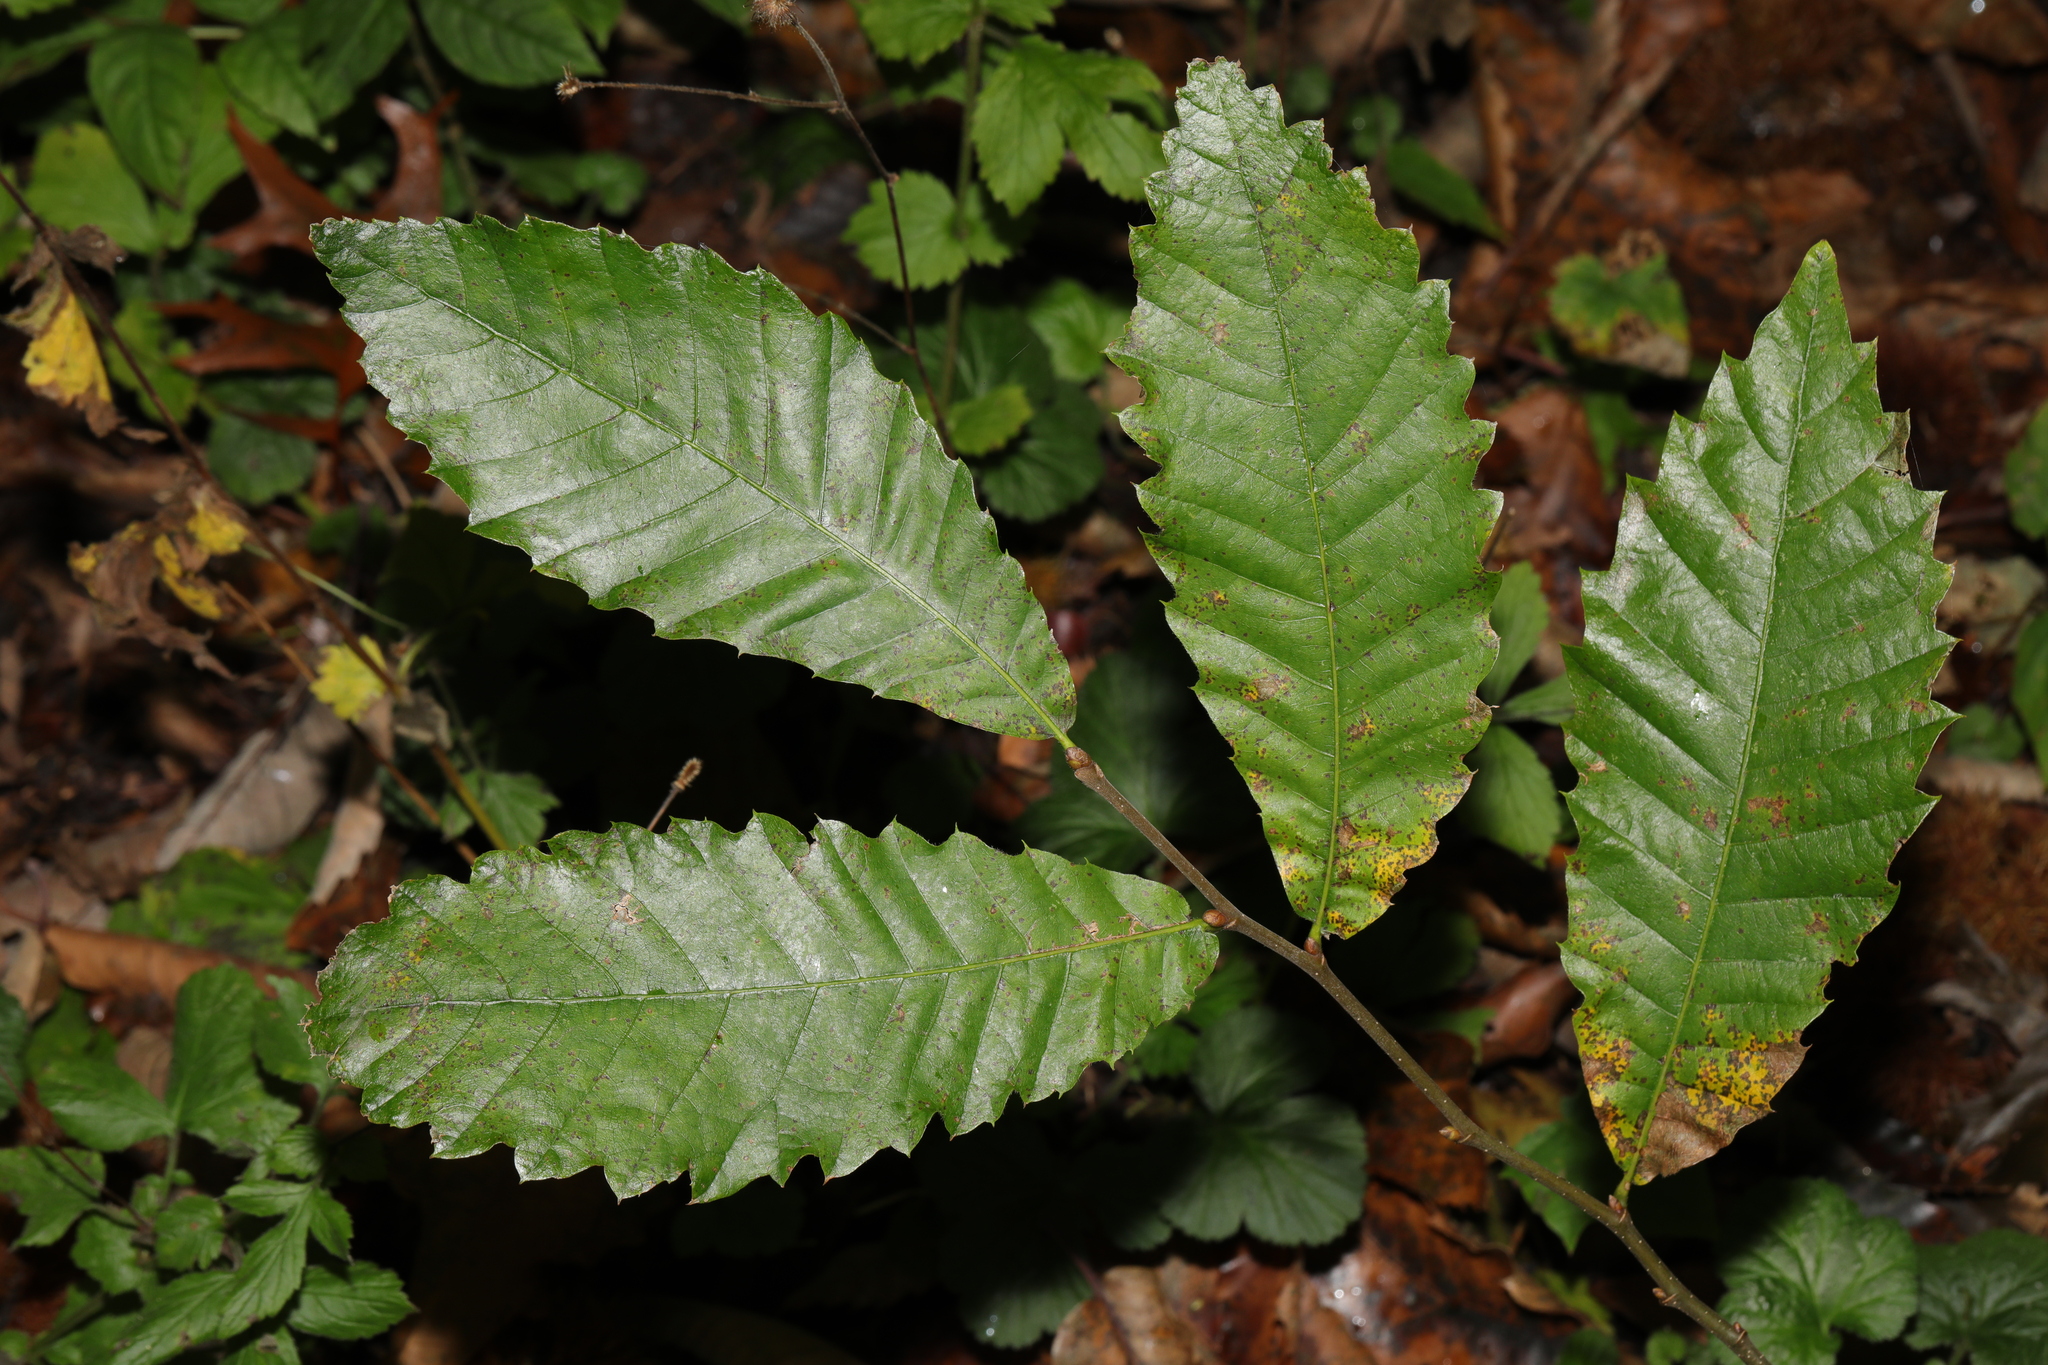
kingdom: Plantae
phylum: Tracheophyta
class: Magnoliopsida
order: Fagales
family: Fagaceae
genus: Castanea
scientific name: Castanea sativa
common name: Sweet chestnut
